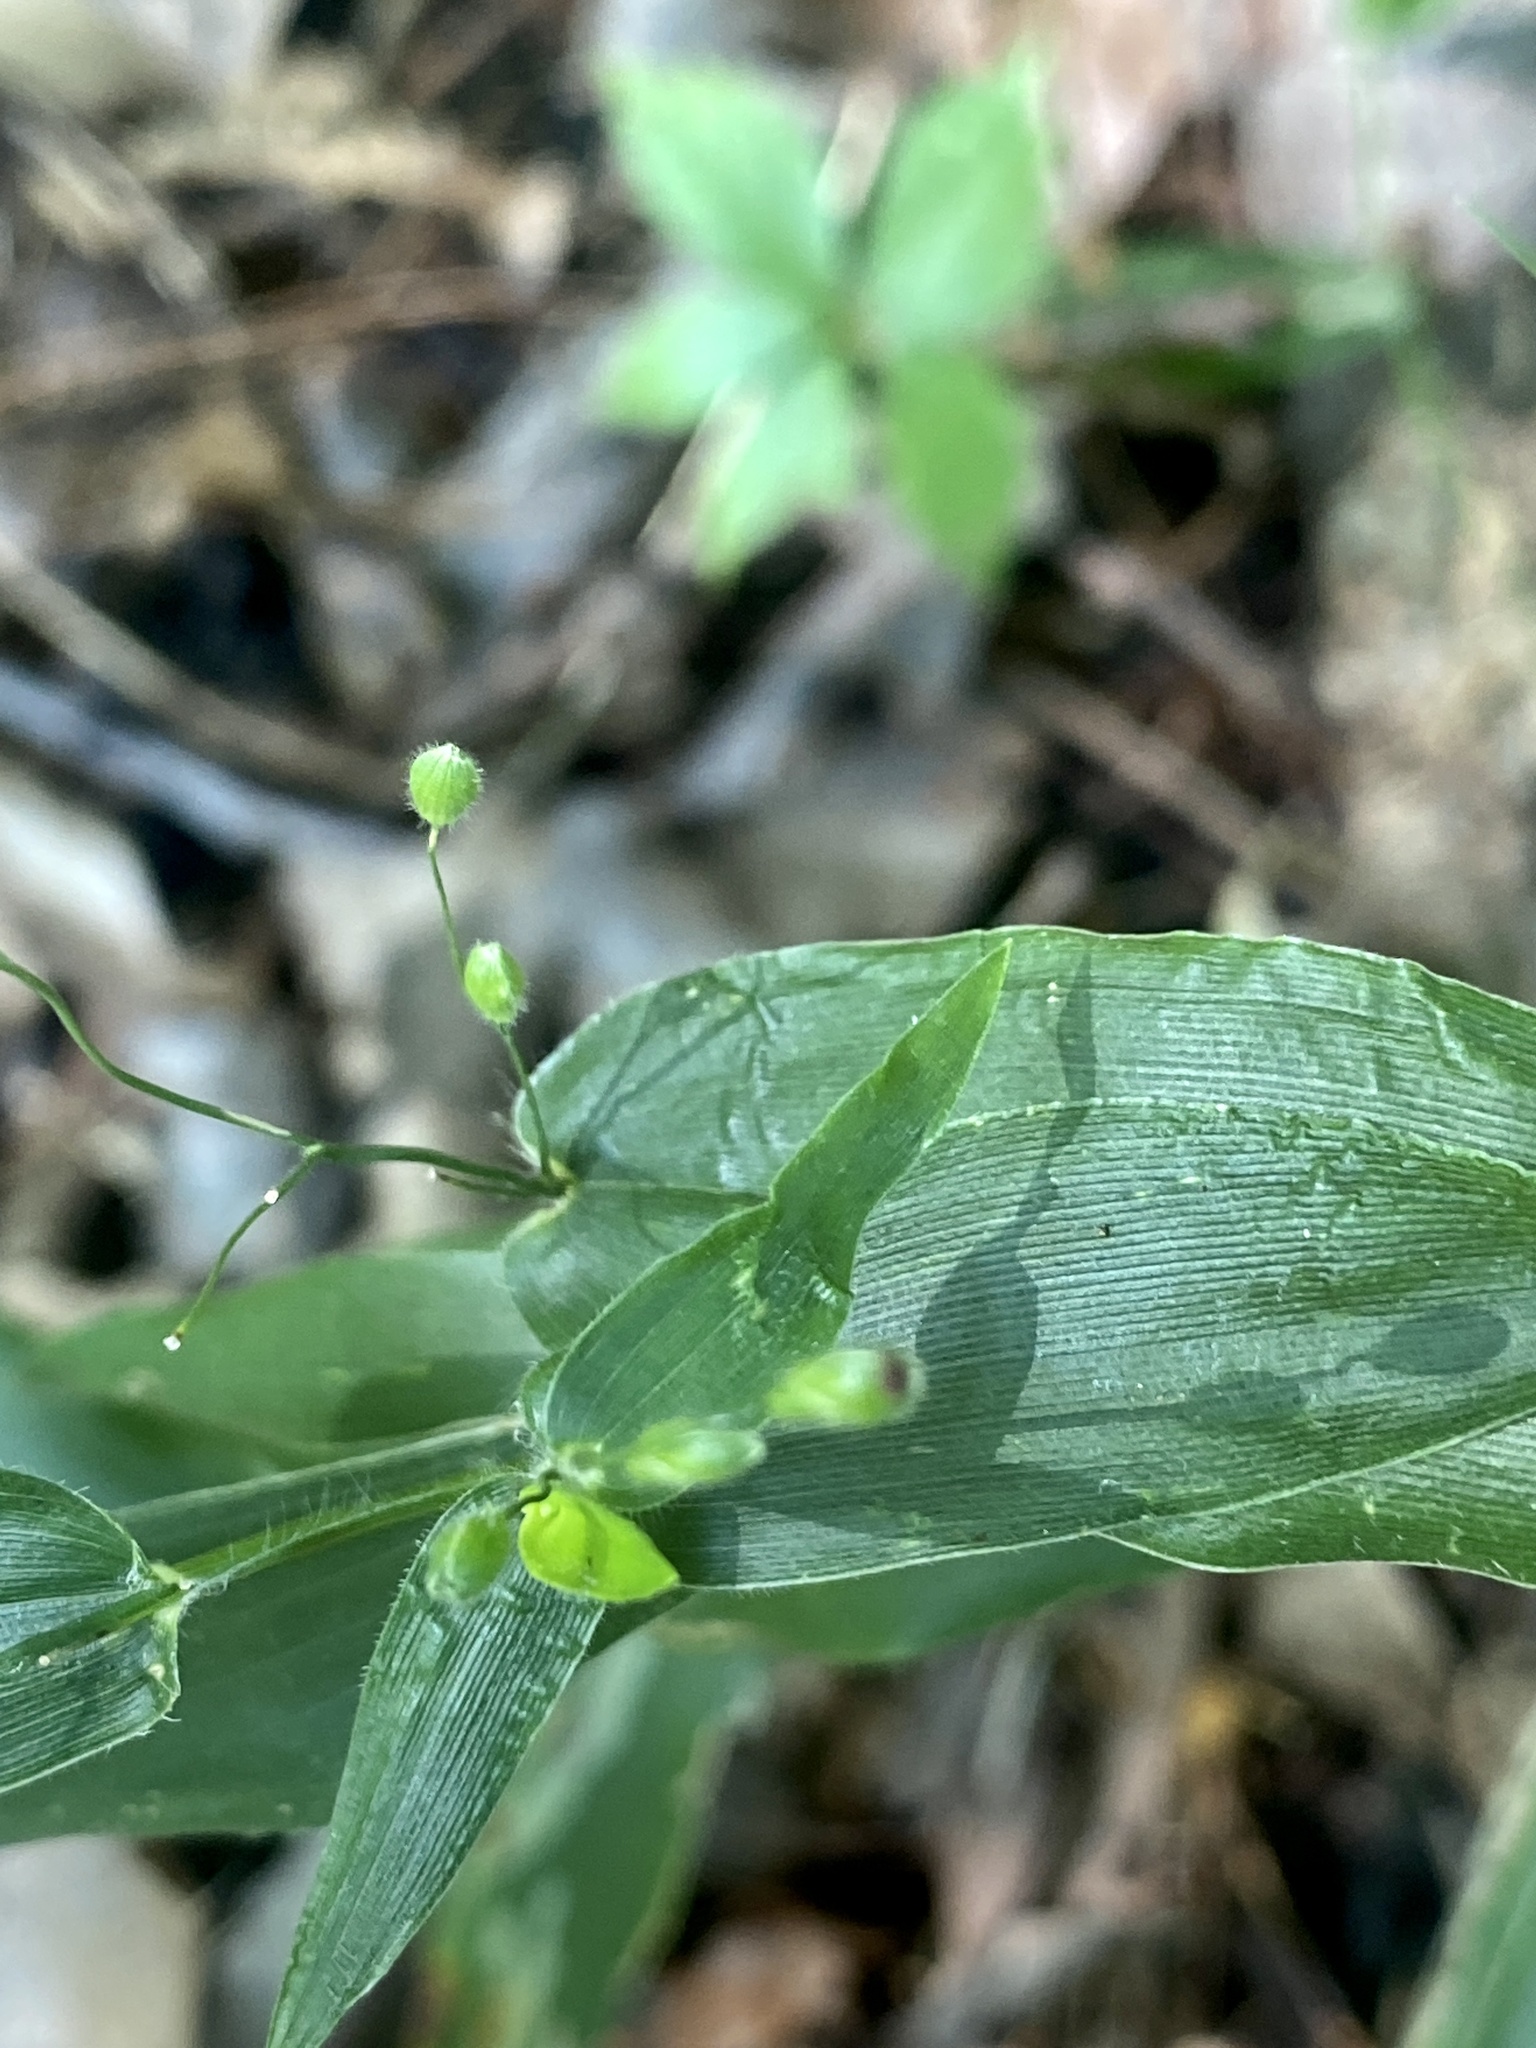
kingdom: Plantae
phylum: Tracheophyta
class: Liliopsida
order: Poales
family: Poaceae
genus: Dichanthelium
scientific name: Dichanthelium clandestinum
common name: Deer-tongue grass
